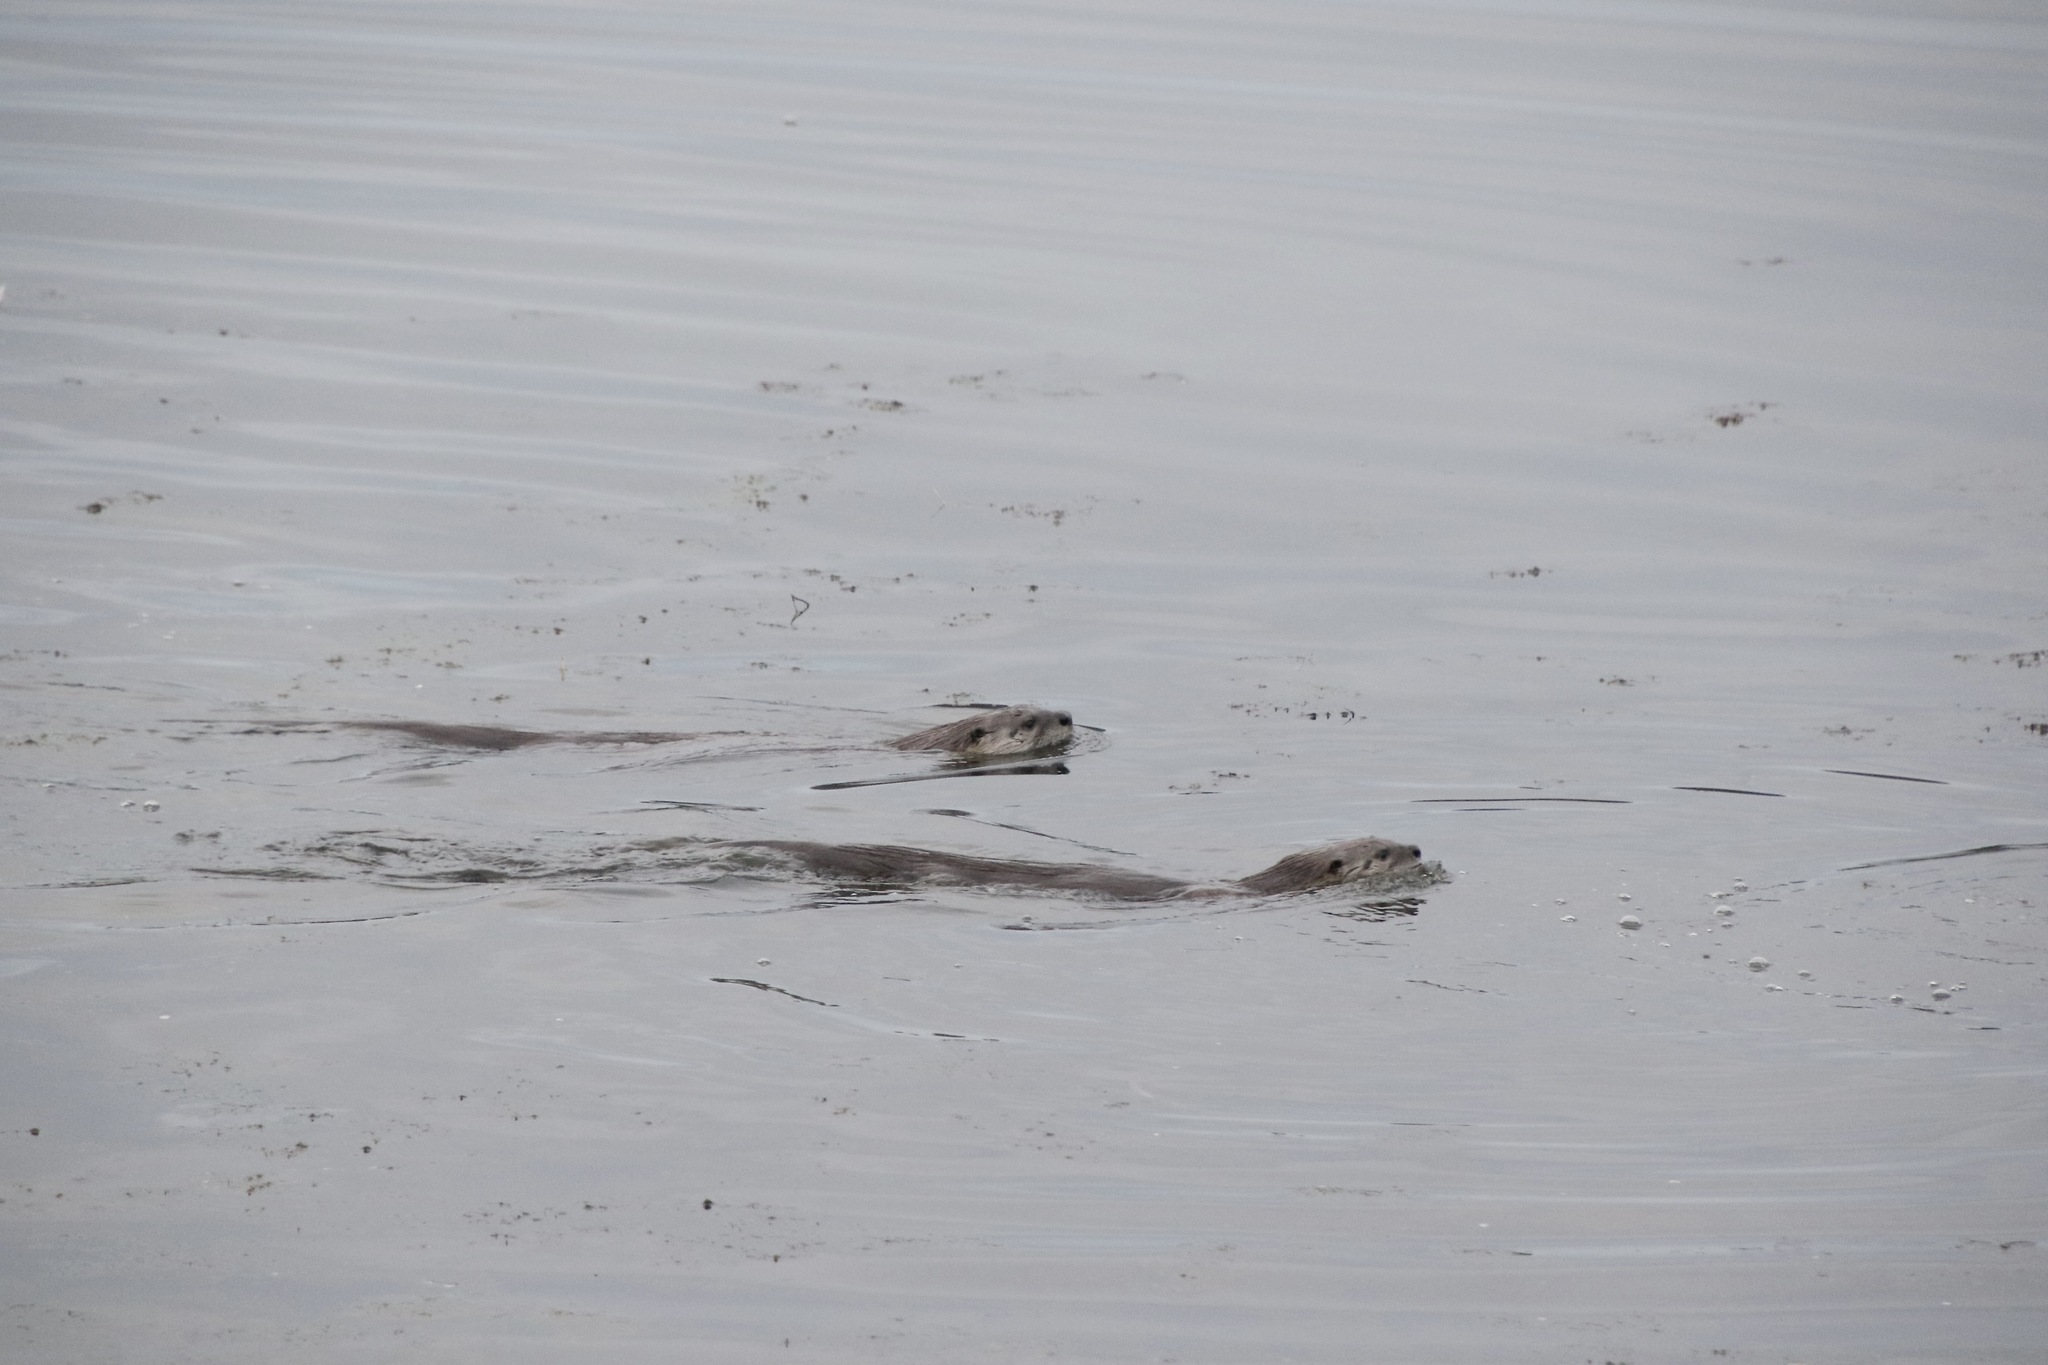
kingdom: Animalia
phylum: Chordata
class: Mammalia
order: Carnivora
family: Mustelidae
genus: Lontra
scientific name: Lontra canadensis
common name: North american river otter
